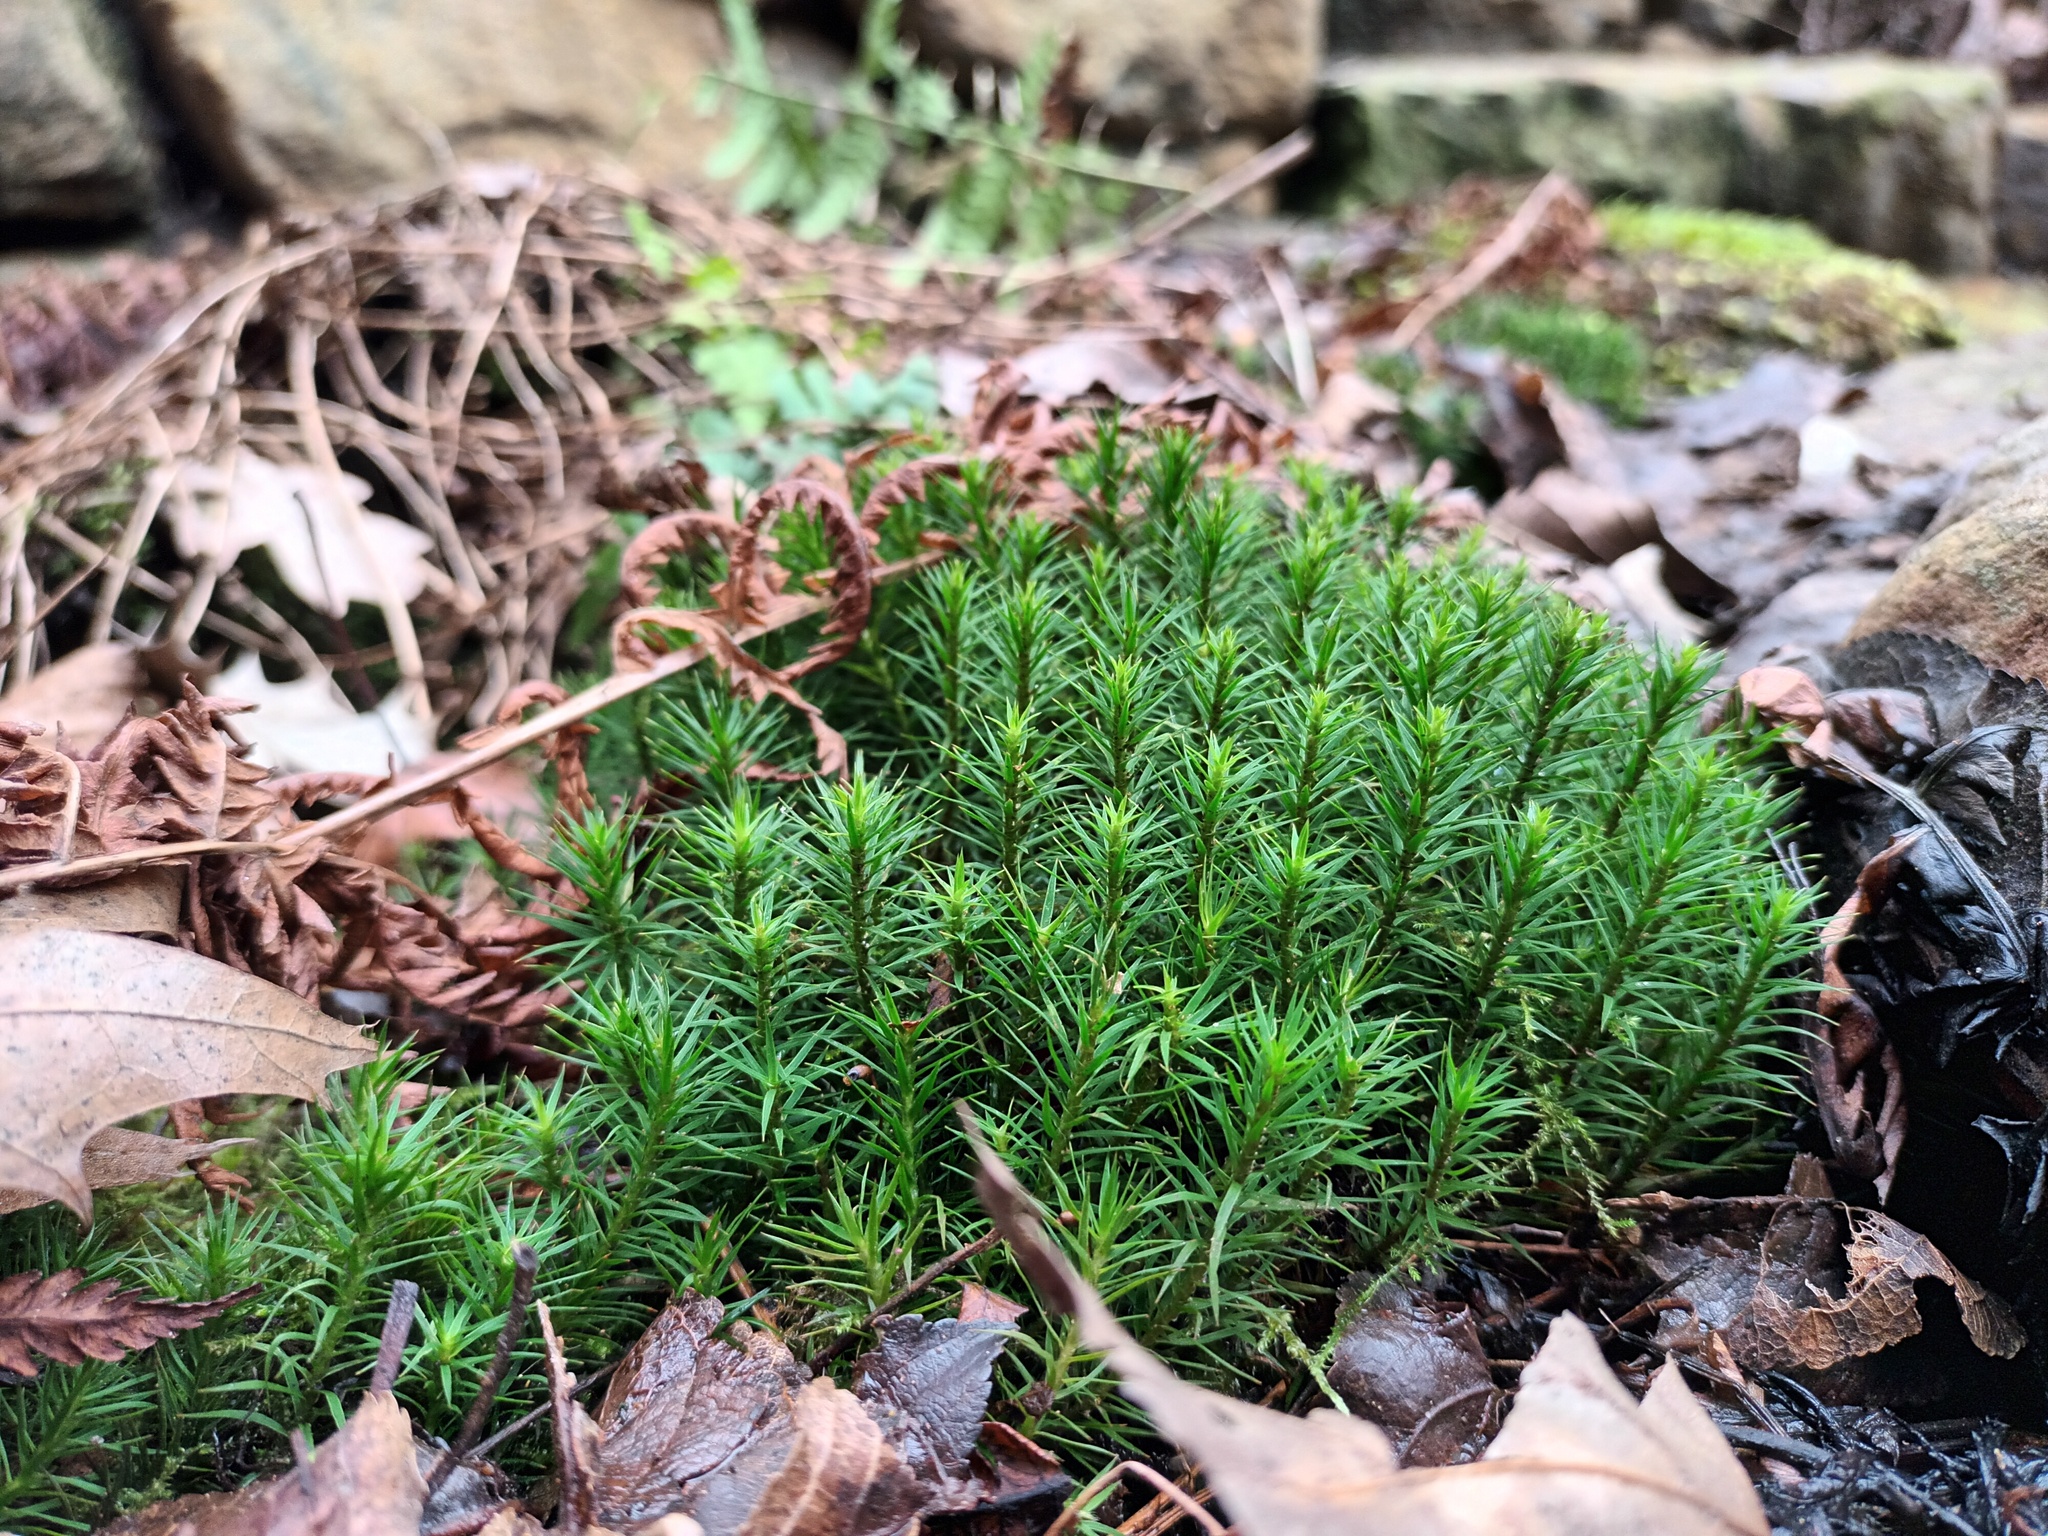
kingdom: Plantae
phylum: Bryophyta
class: Polytrichopsida
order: Polytrichales
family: Polytrichaceae
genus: Polytrichum
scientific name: Polytrichum formosum
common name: Bank haircap moss
